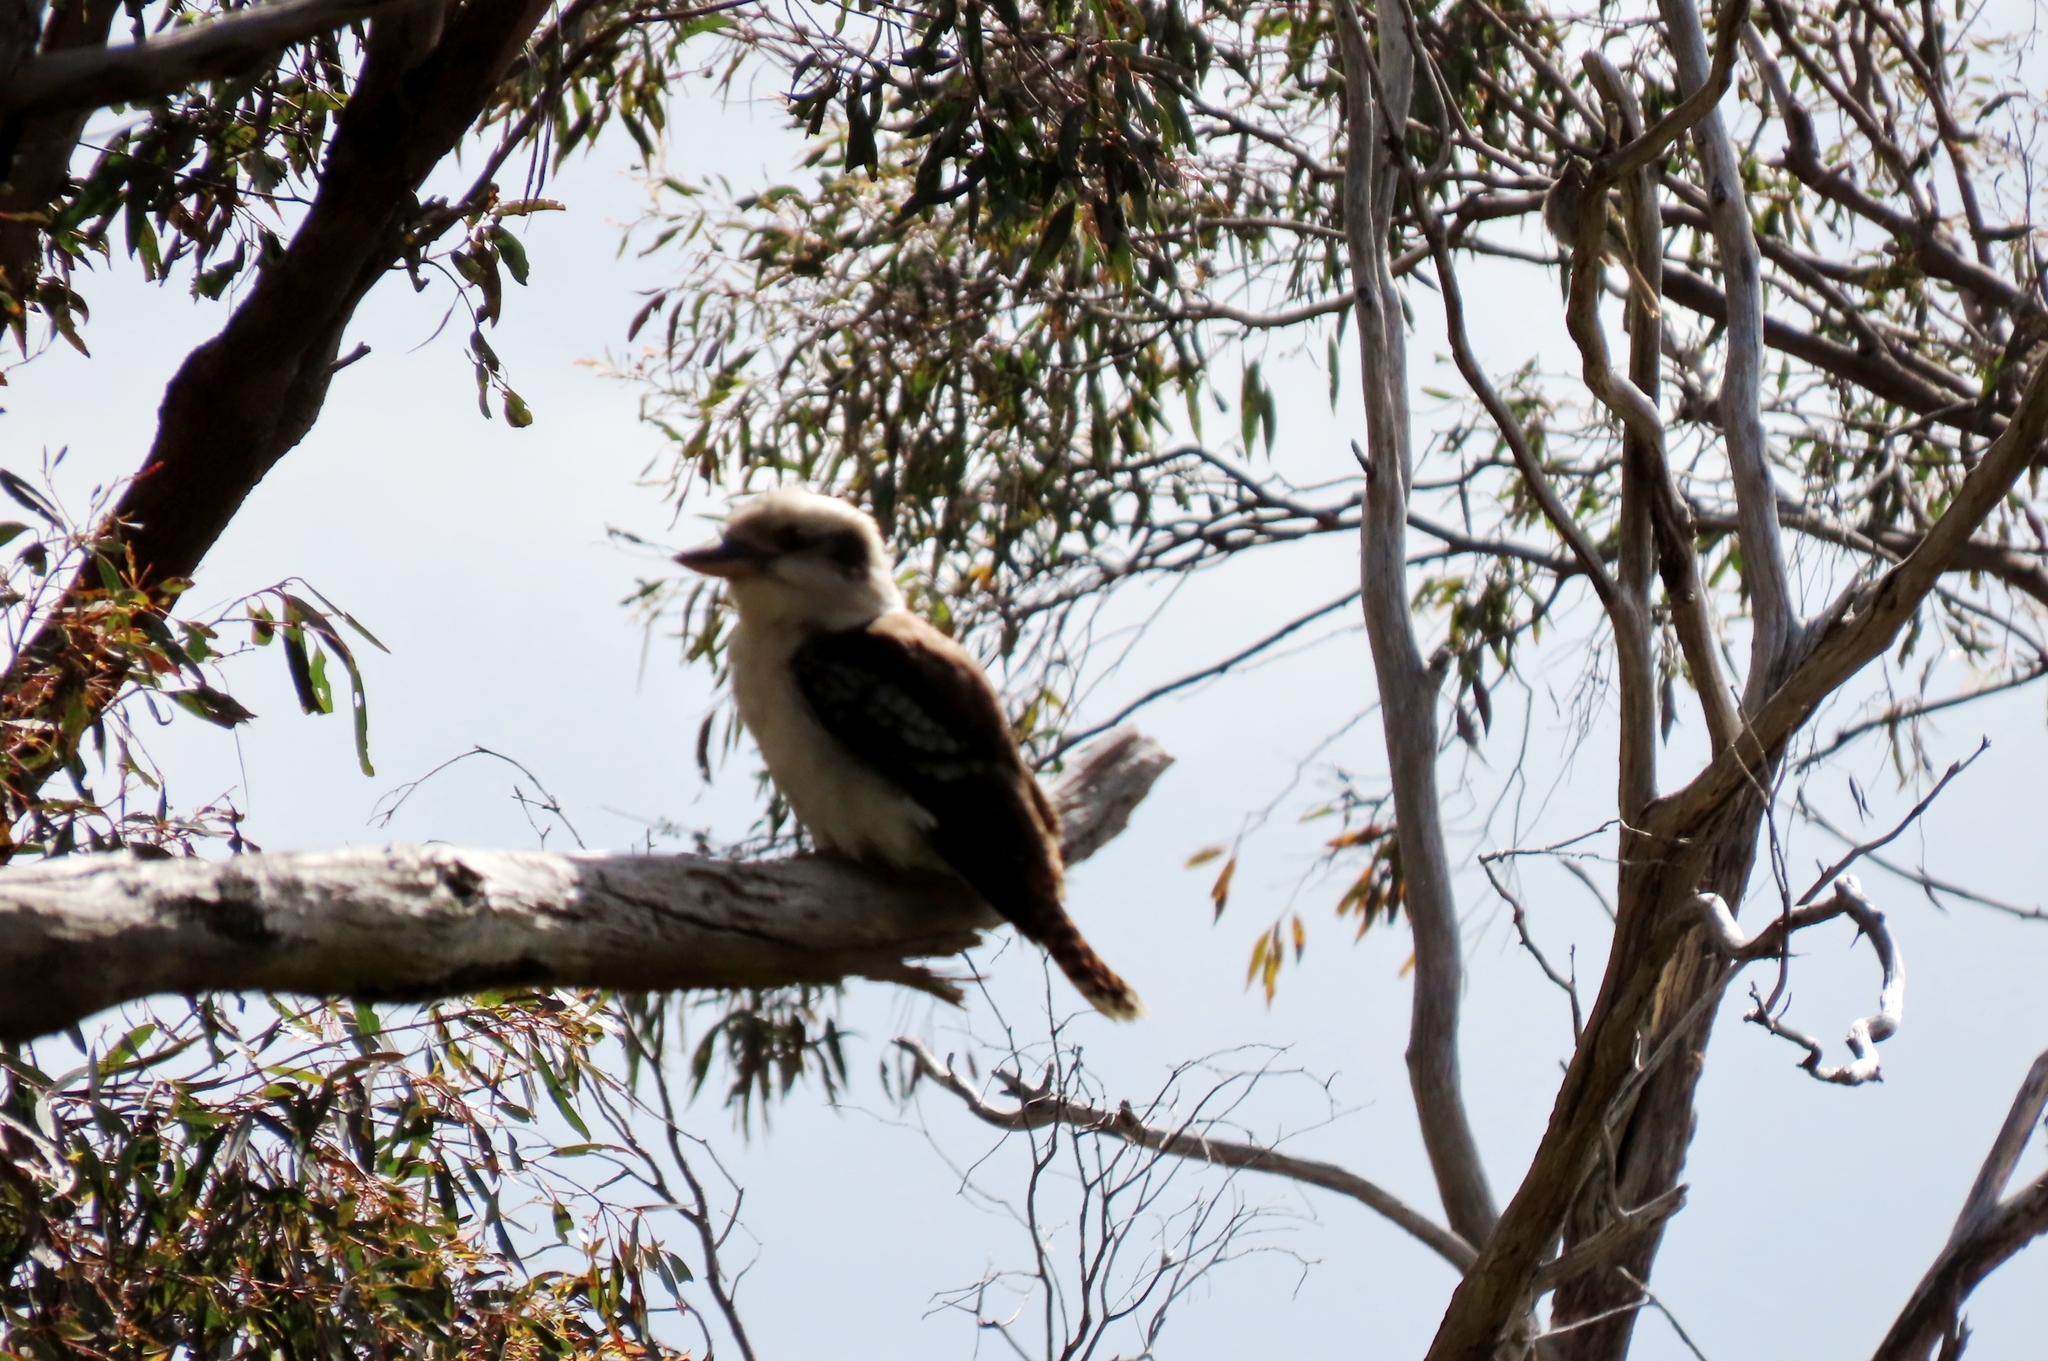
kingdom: Animalia
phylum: Chordata
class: Aves
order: Coraciiformes
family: Alcedinidae
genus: Dacelo
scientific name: Dacelo novaeguineae
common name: Laughing kookaburra
